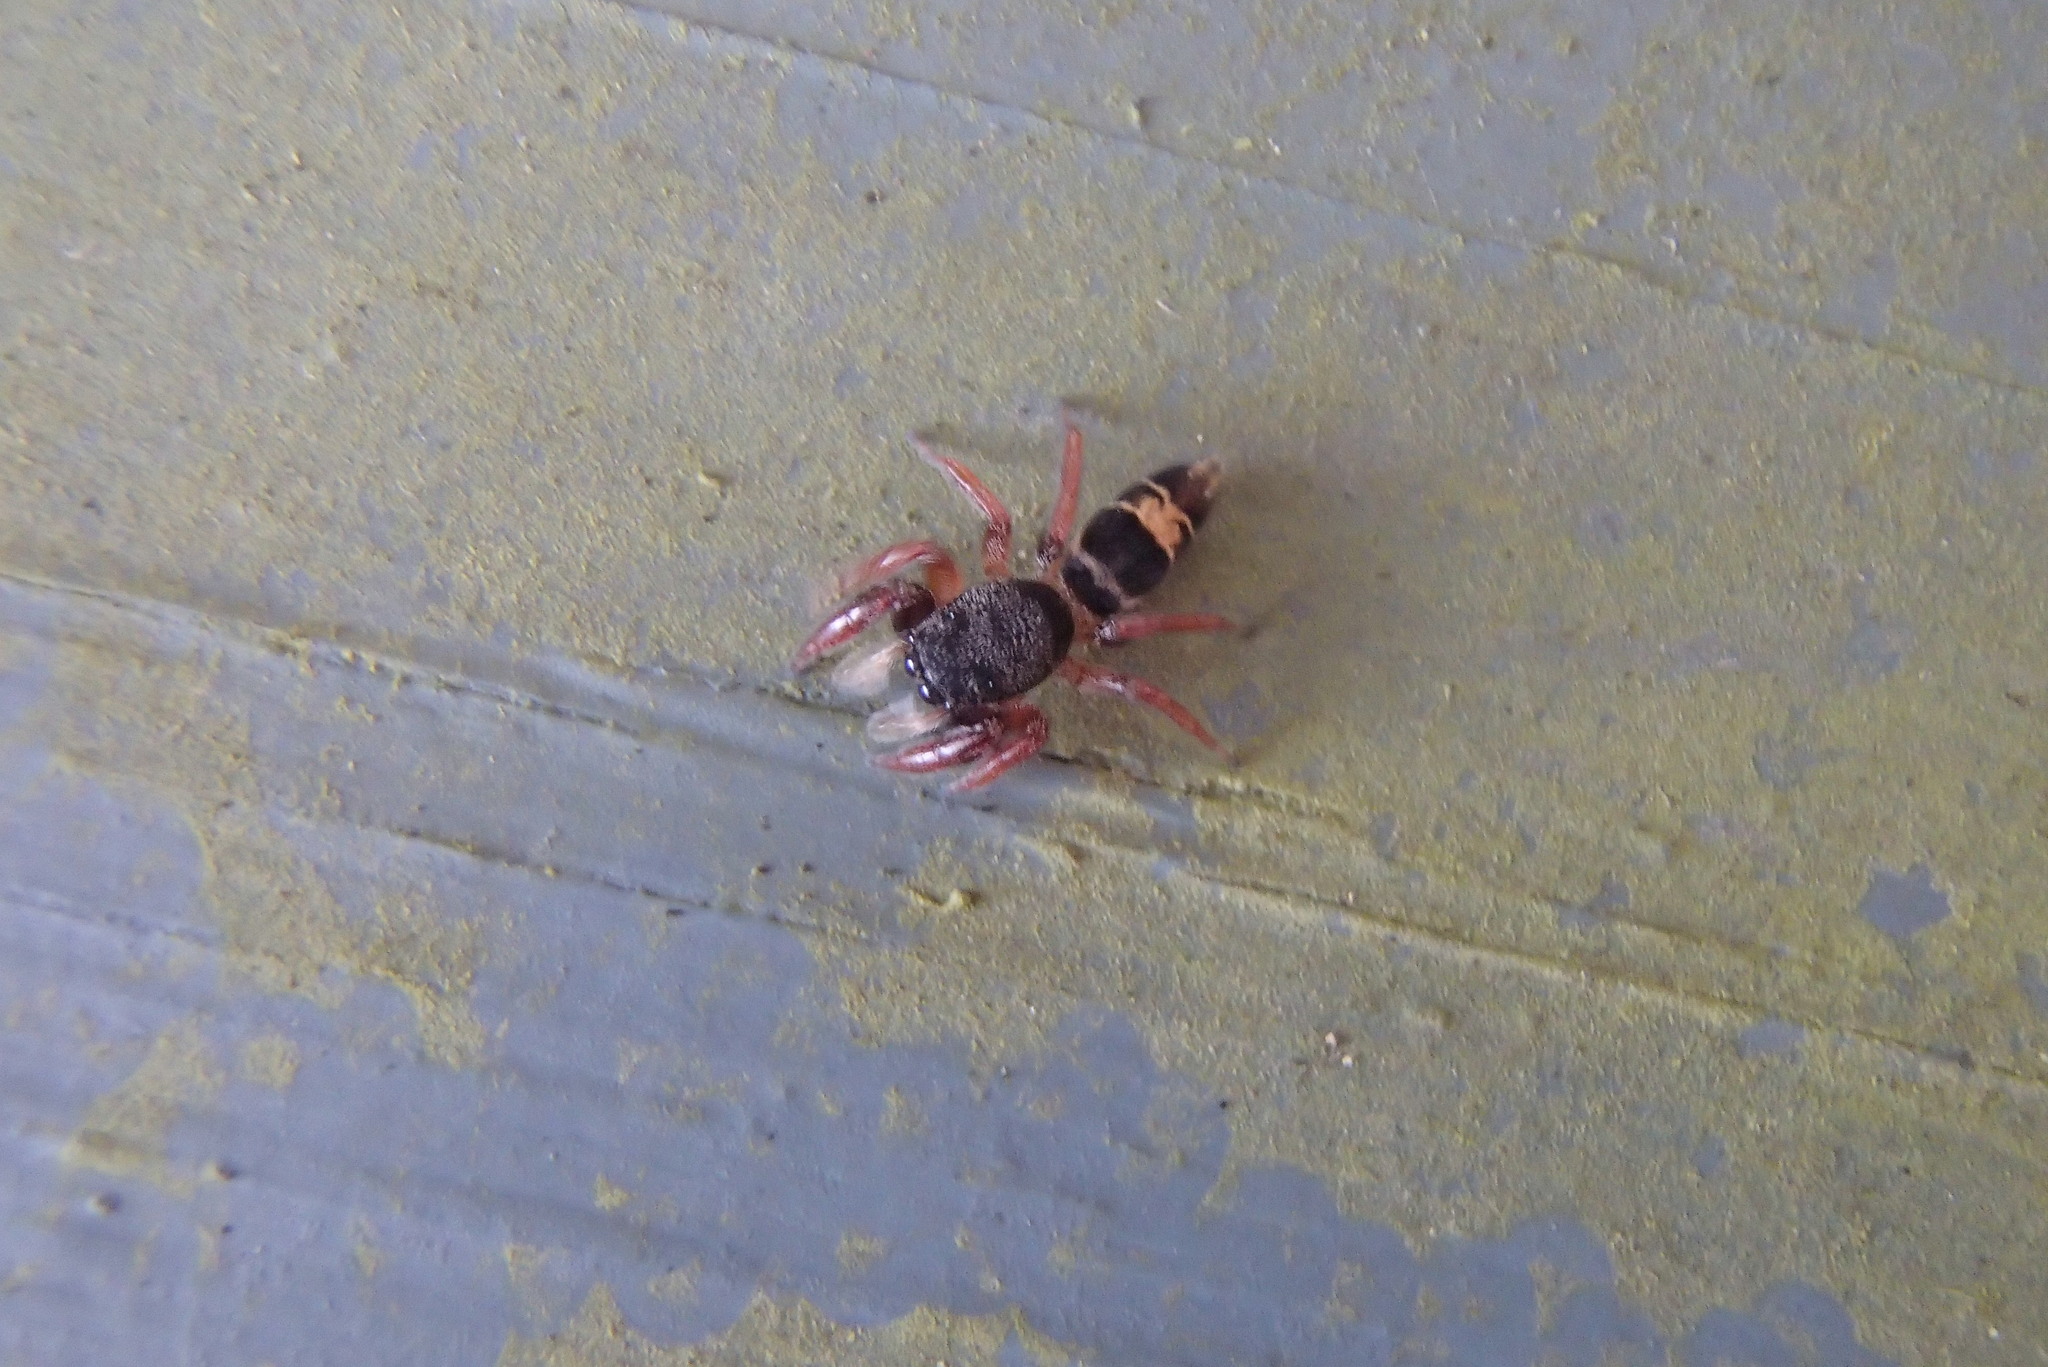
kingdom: Animalia
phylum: Arthropoda
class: Arachnida
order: Araneae
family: Salticidae
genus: Apricia
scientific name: Apricia jovialis
